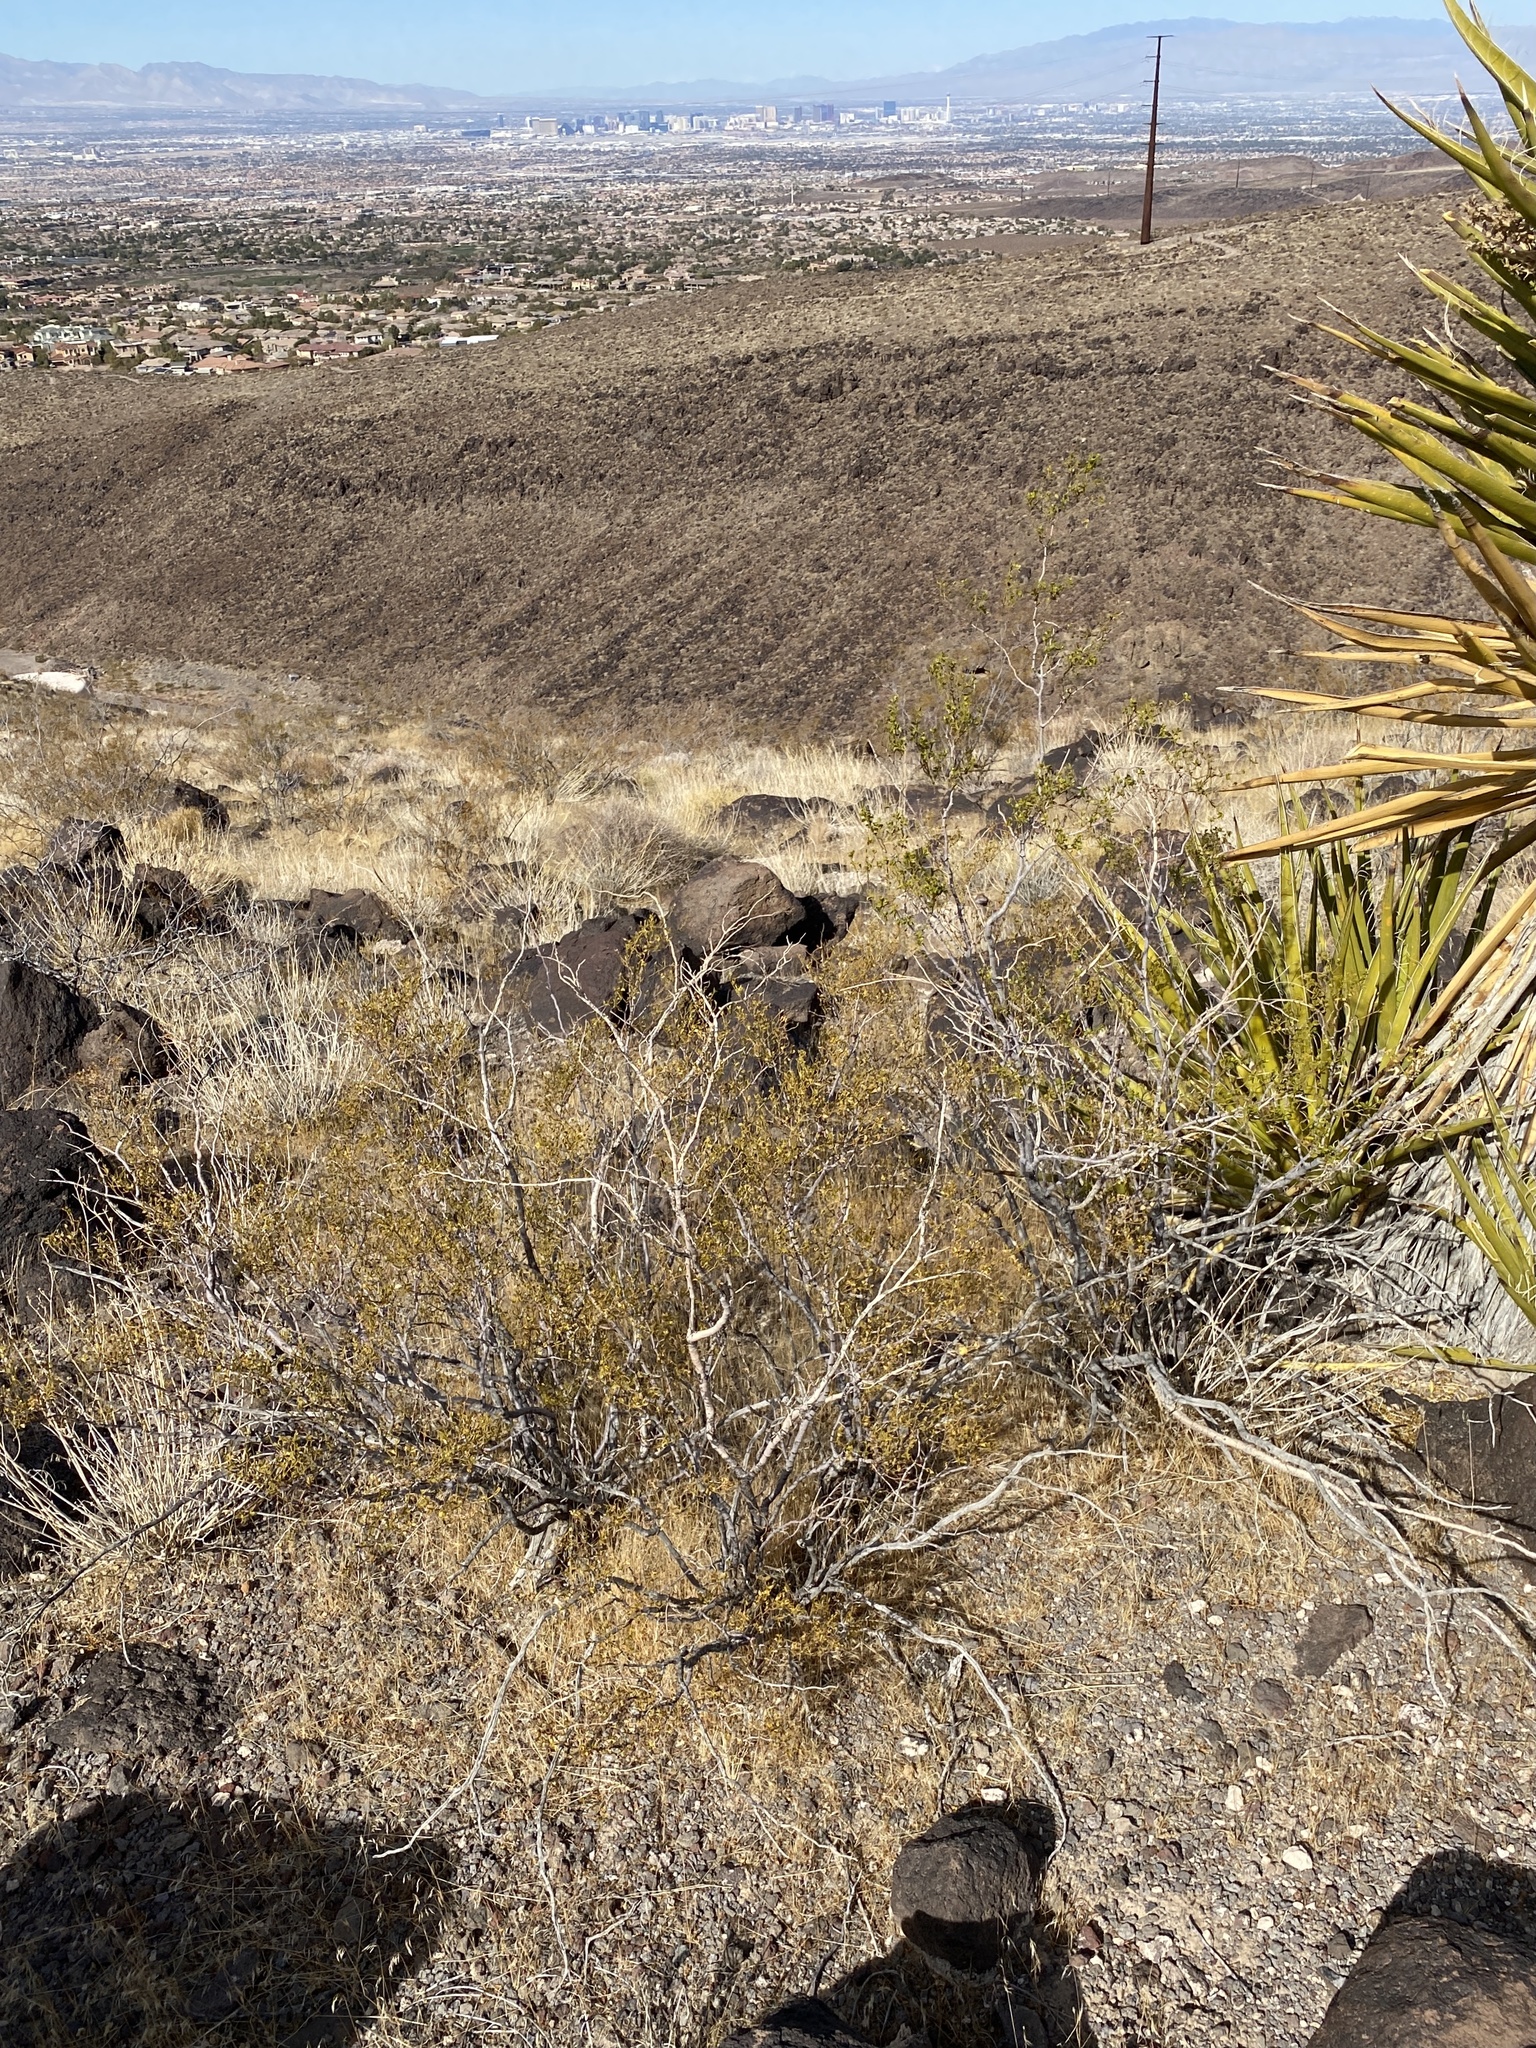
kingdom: Plantae
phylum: Tracheophyta
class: Magnoliopsida
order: Zygophyllales
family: Zygophyllaceae
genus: Larrea
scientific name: Larrea tridentata
